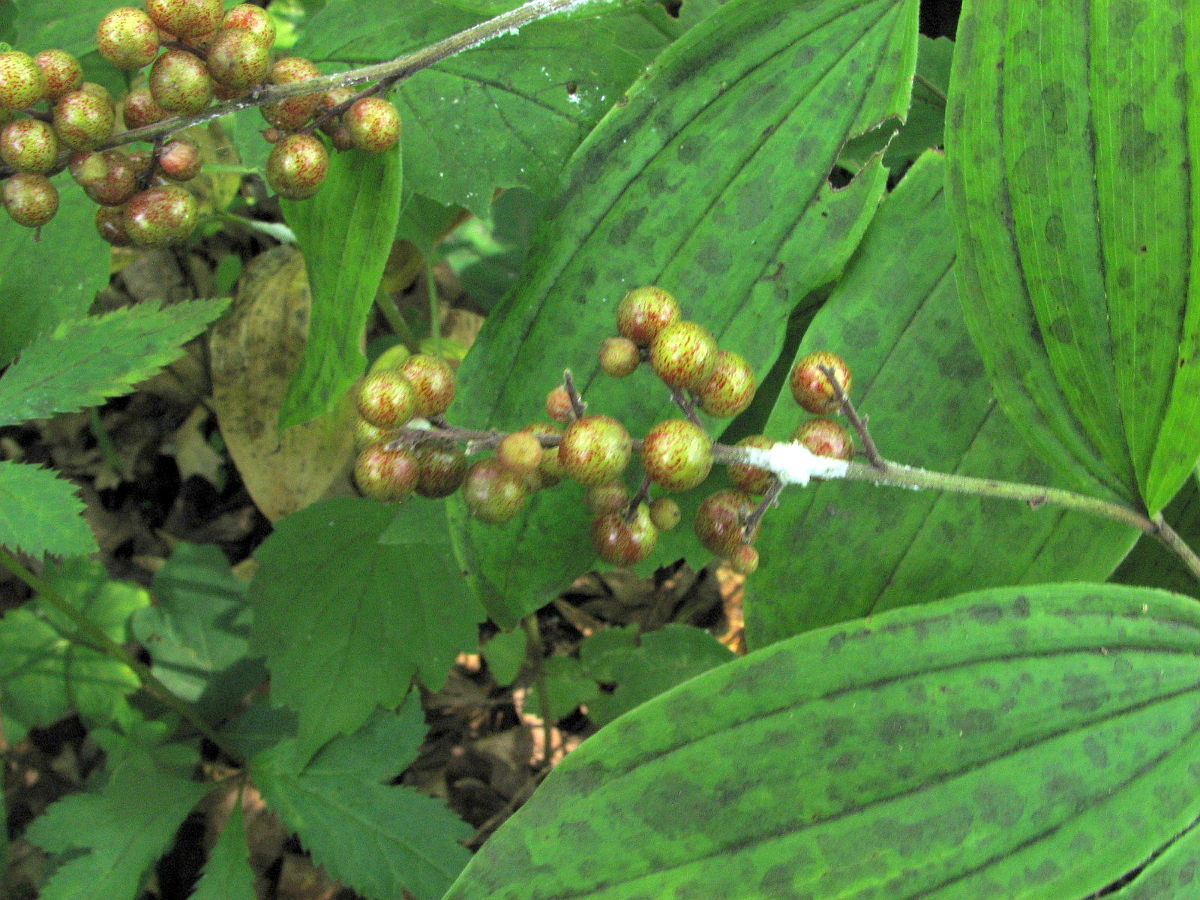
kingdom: Plantae
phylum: Tracheophyta
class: Liliopsida
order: Asparagales
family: Asparagaceae
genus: Maianthemum
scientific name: Maianthemum racemosum
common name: False spikenard
